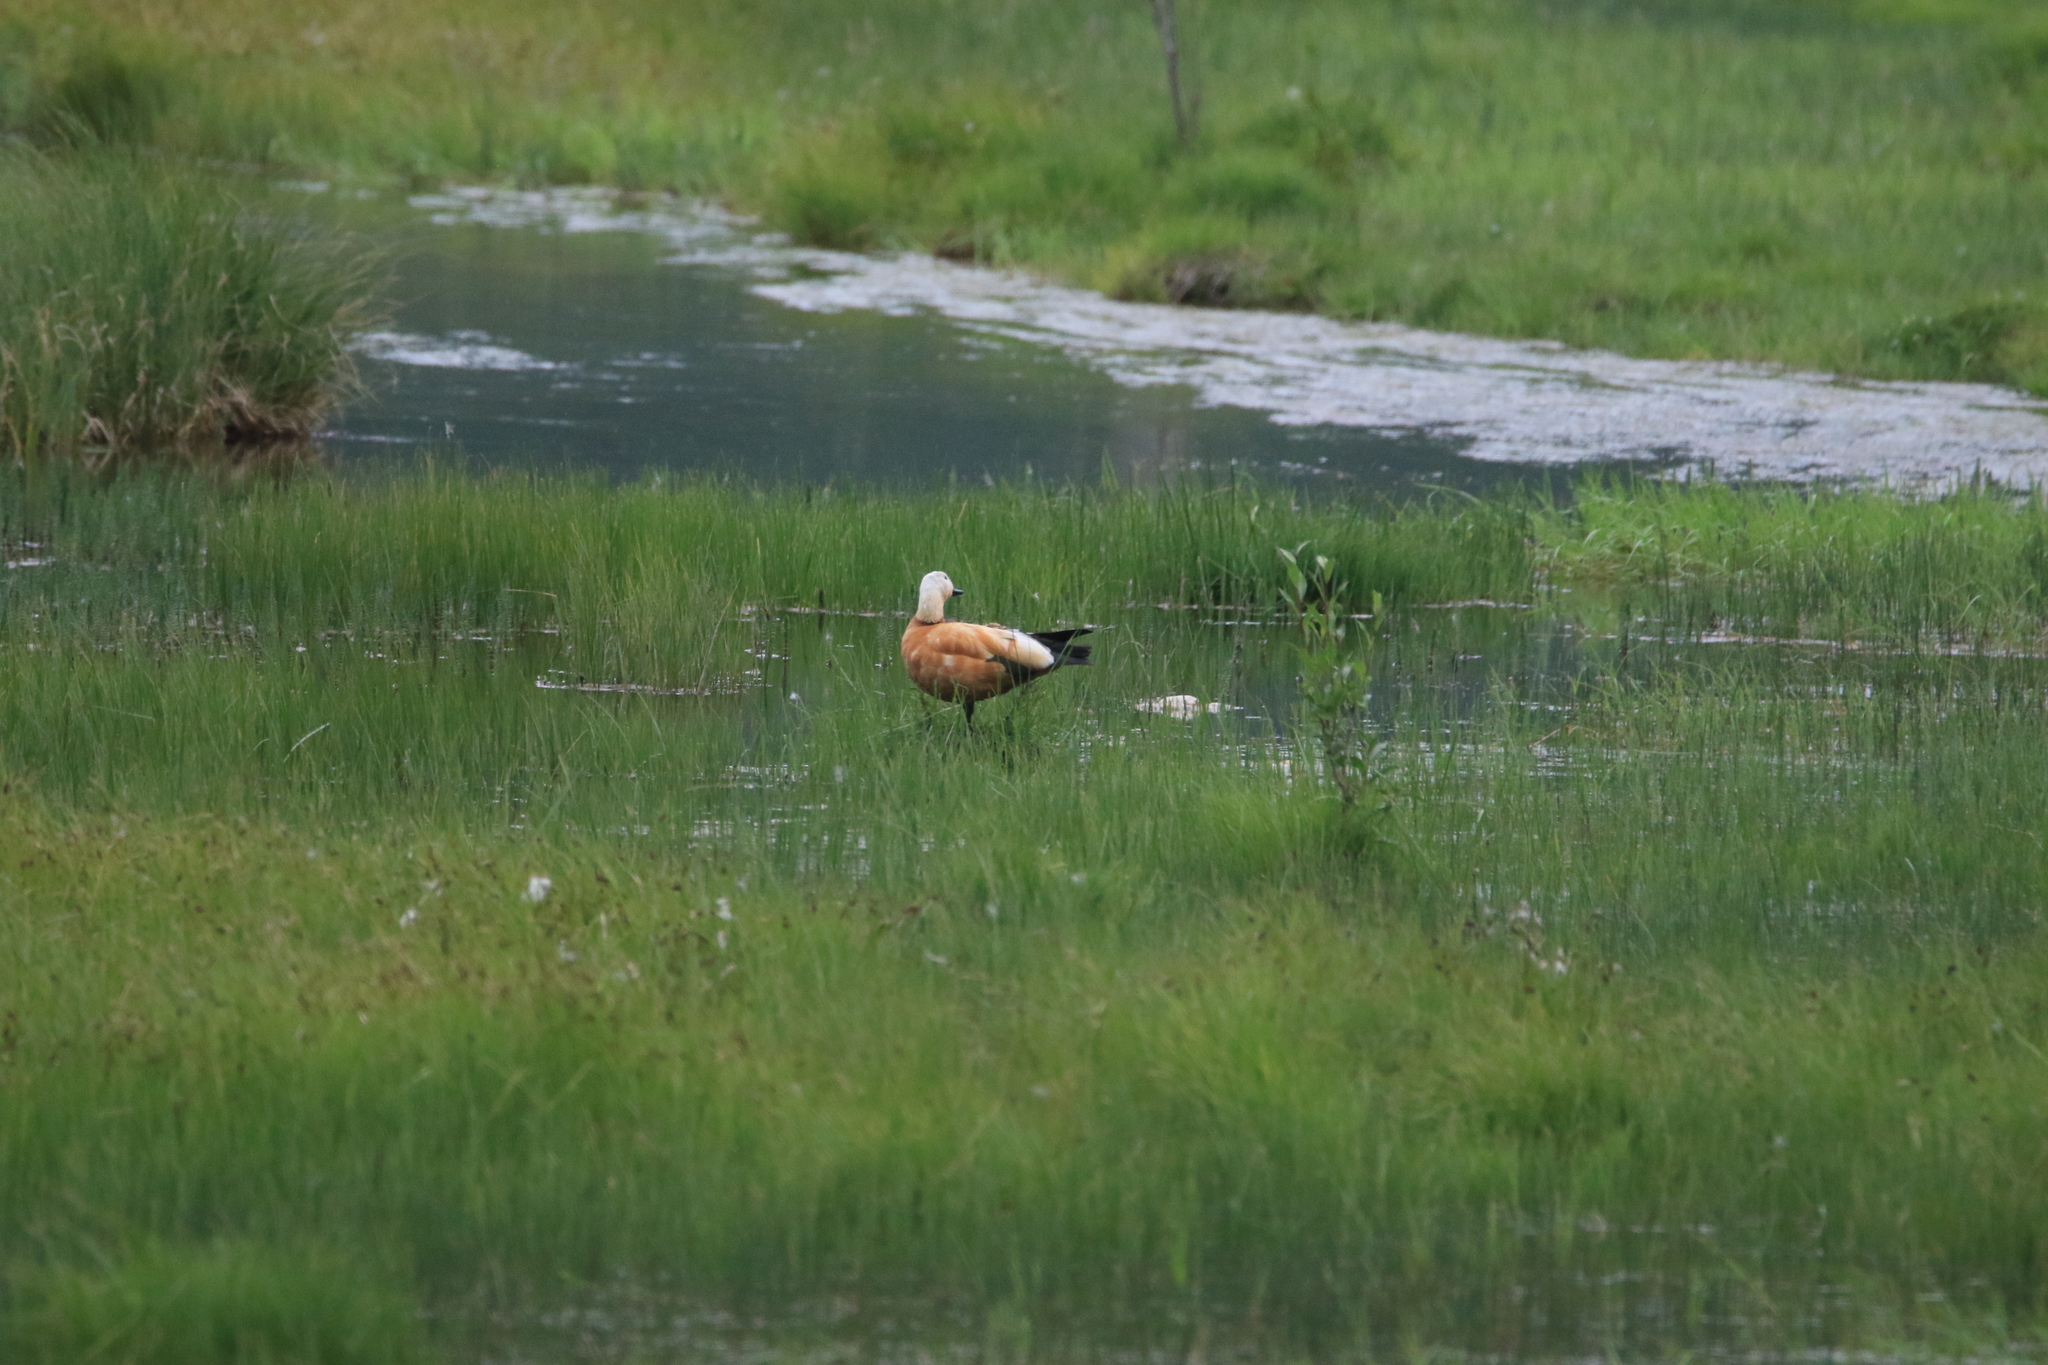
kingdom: Animalia
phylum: Chordata
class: Aves
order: Anseriformes
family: Anatidae
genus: Tadorna
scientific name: Tadorna ferruginea
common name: Ruddy shelduck
